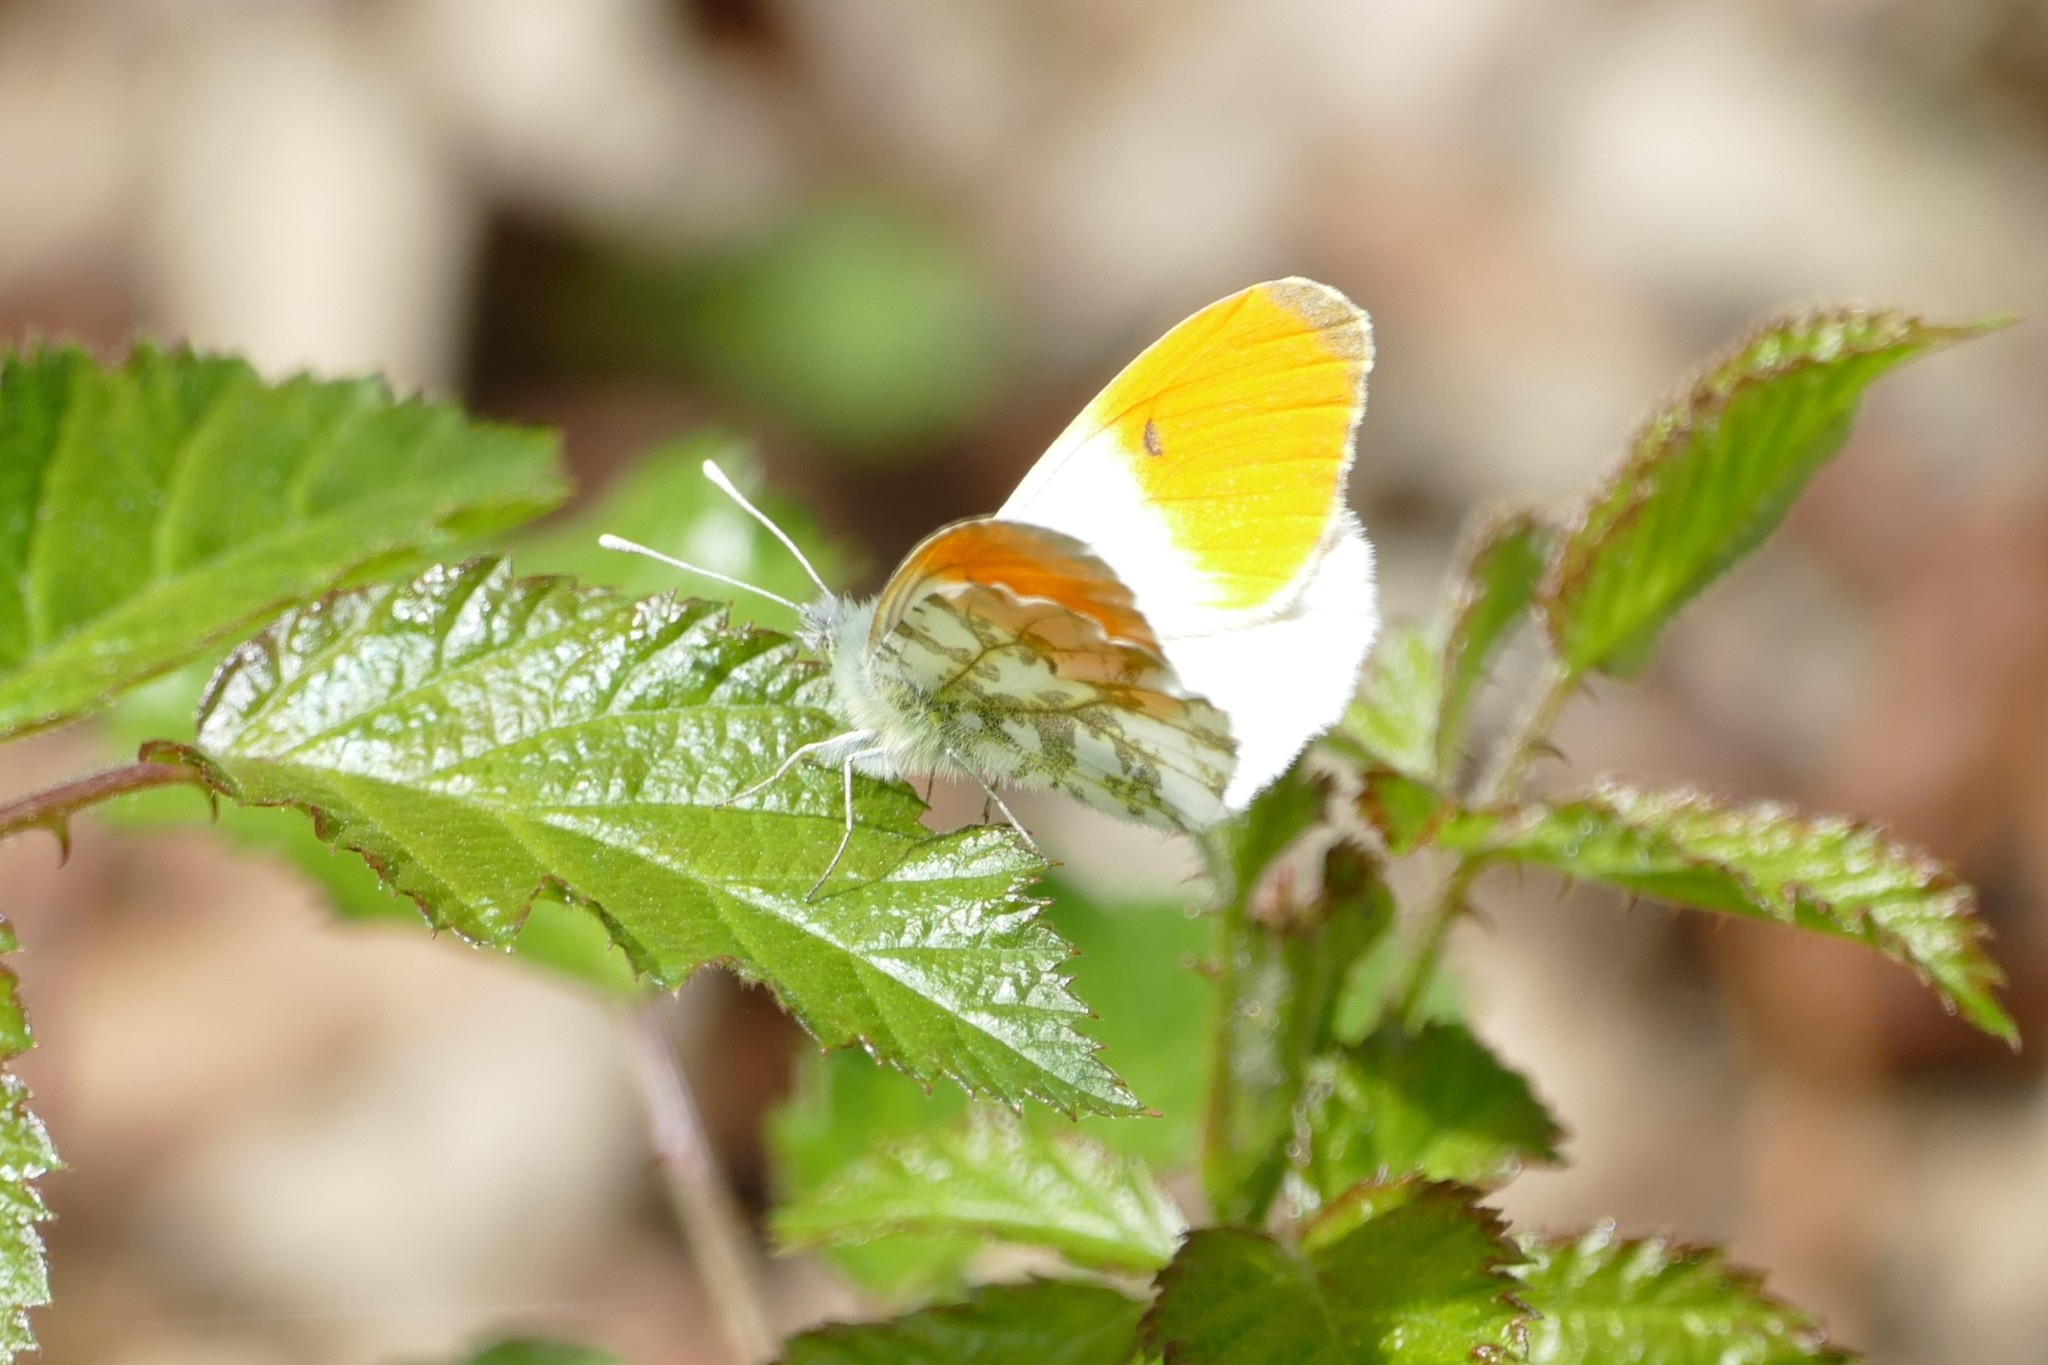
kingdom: Animalia
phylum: Arthropoda
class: Insecta
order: Lepidoptera
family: Pieridae
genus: Anthocharis
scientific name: Anthocharis cardamines
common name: Orange-tip
